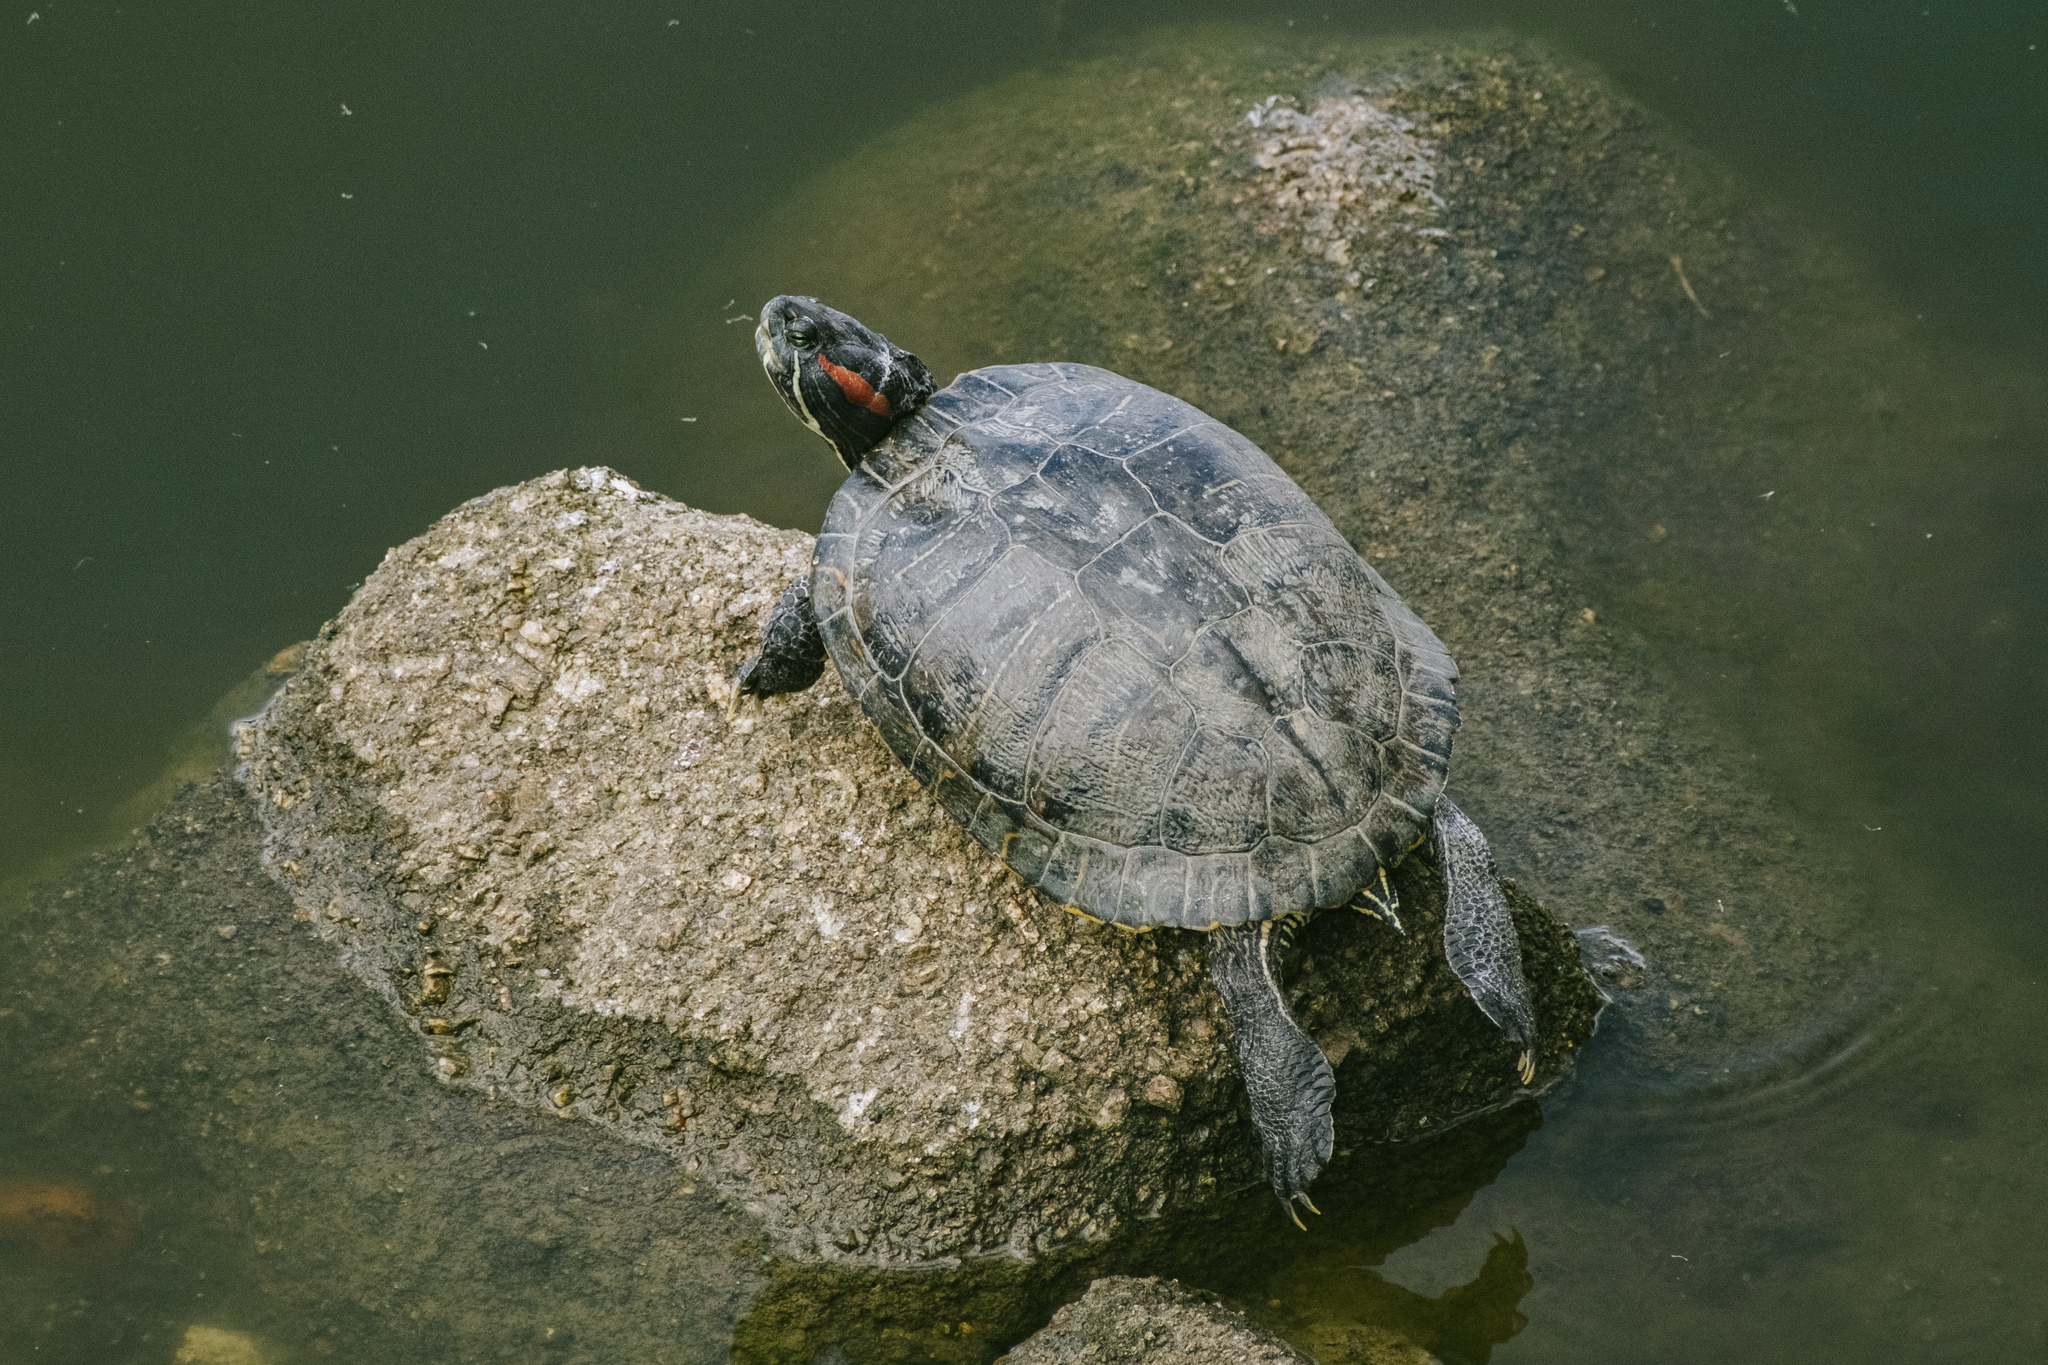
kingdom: Animalia
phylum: Chordata
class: Testudines
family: Emydidae
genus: Trachemys
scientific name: Trachemys scripta
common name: Slider
